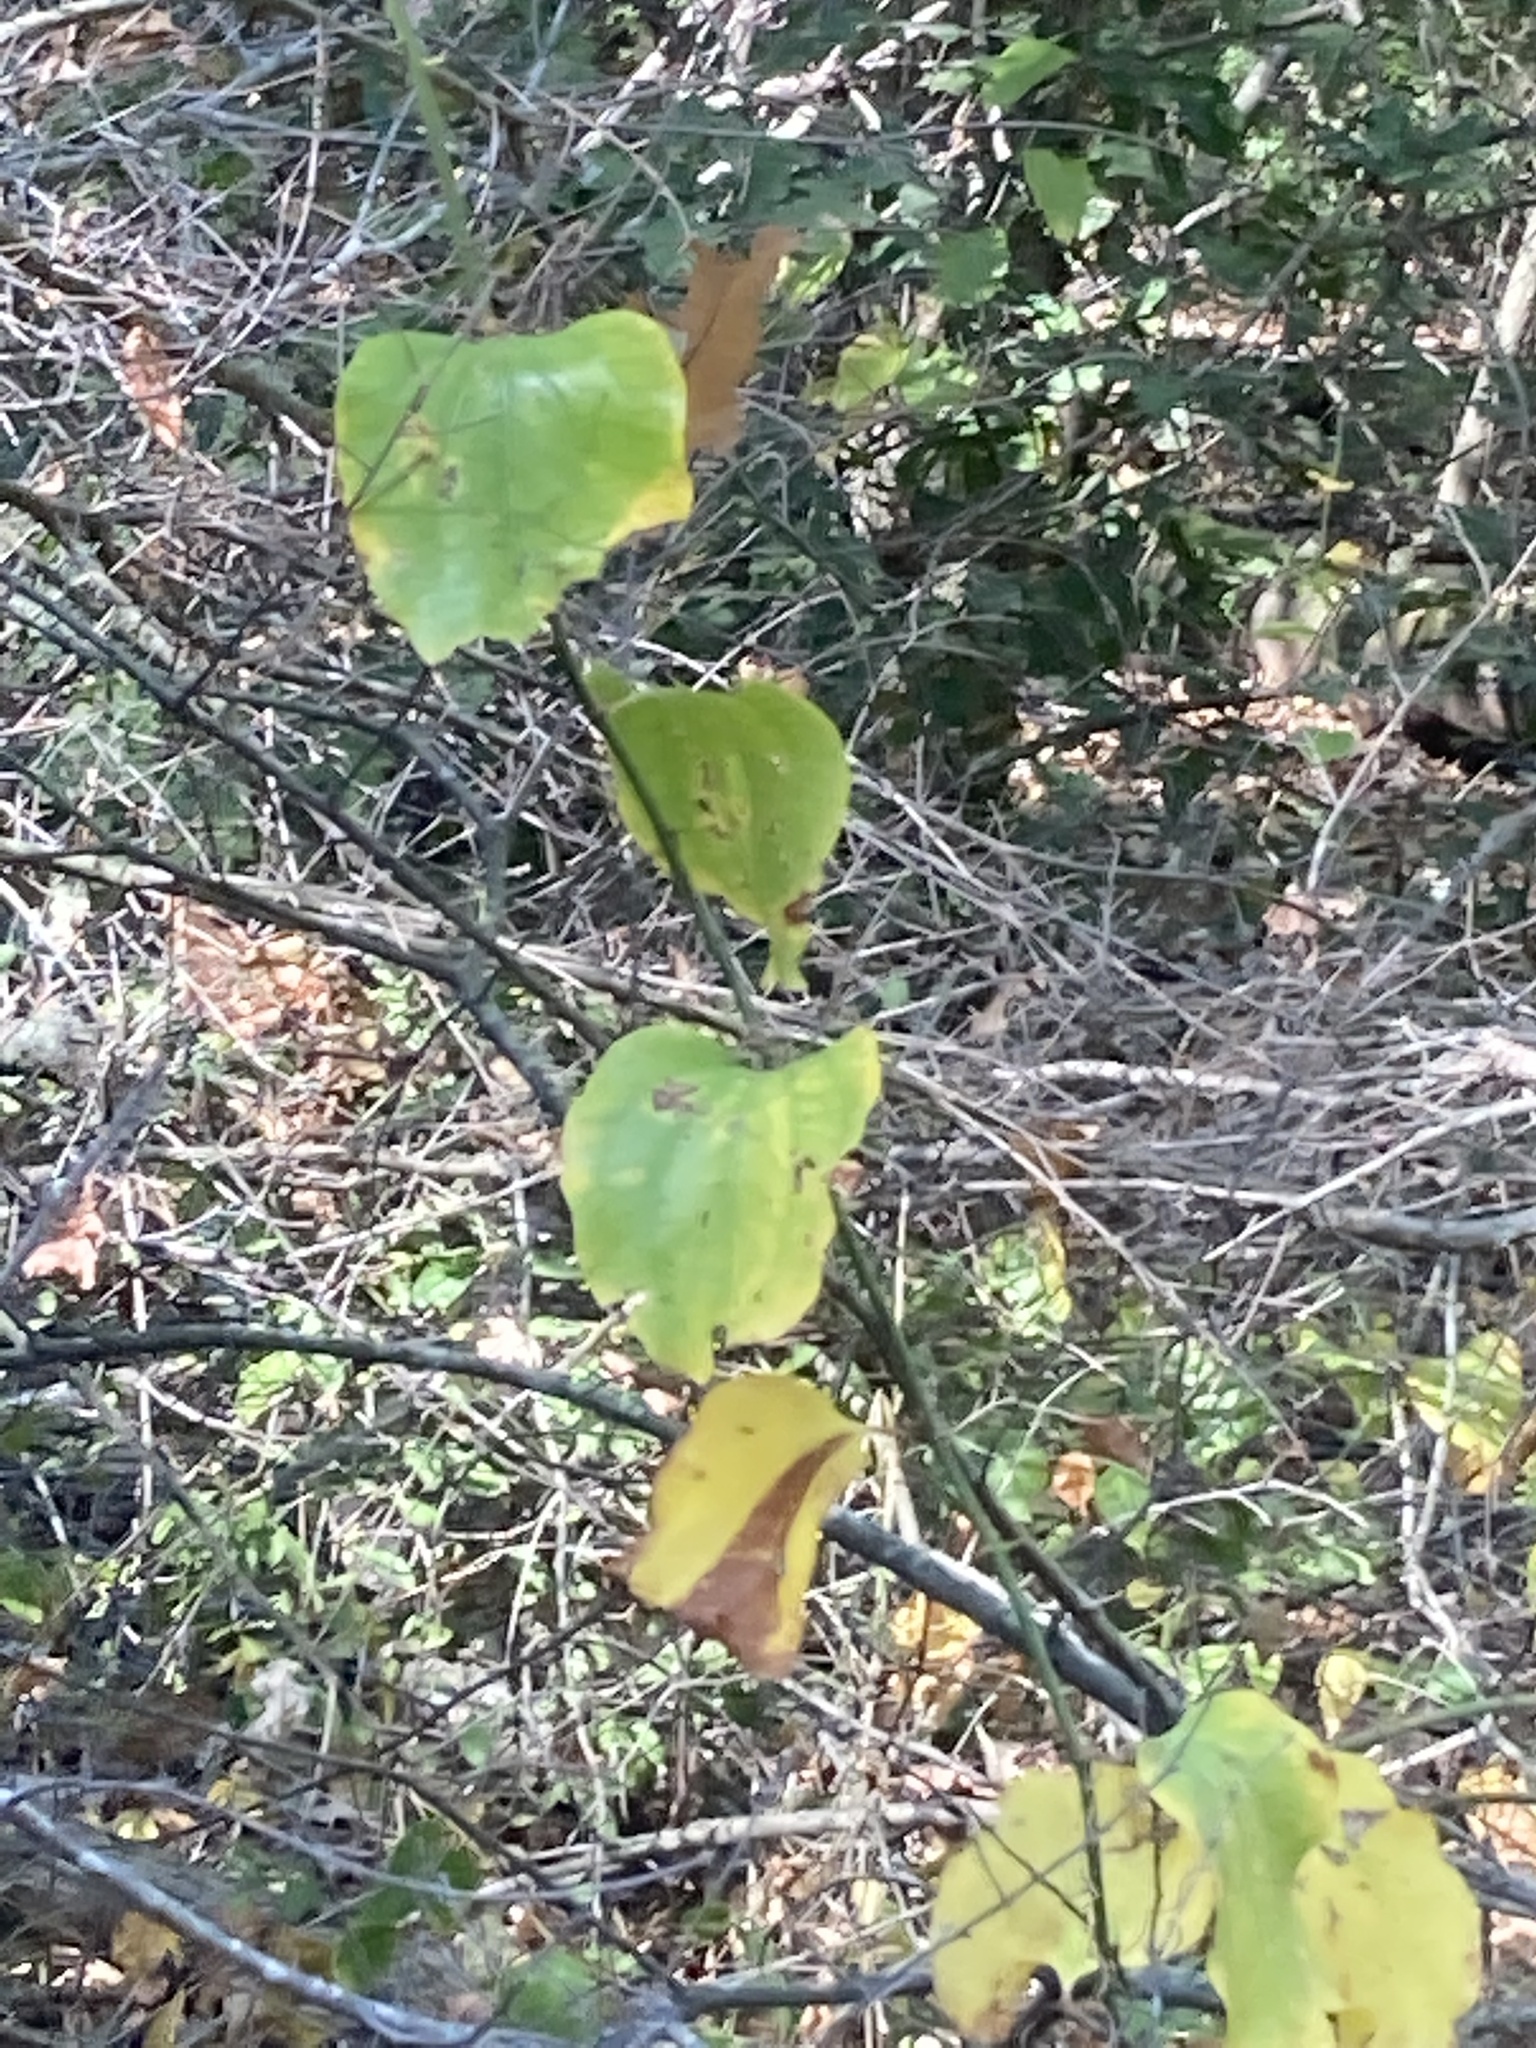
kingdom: Plantae
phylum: Tracheophyta
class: Liliopsida
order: Liliales
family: Smilacaceae
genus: Smilax
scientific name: Smilax rotundifolia
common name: Bullbriar
